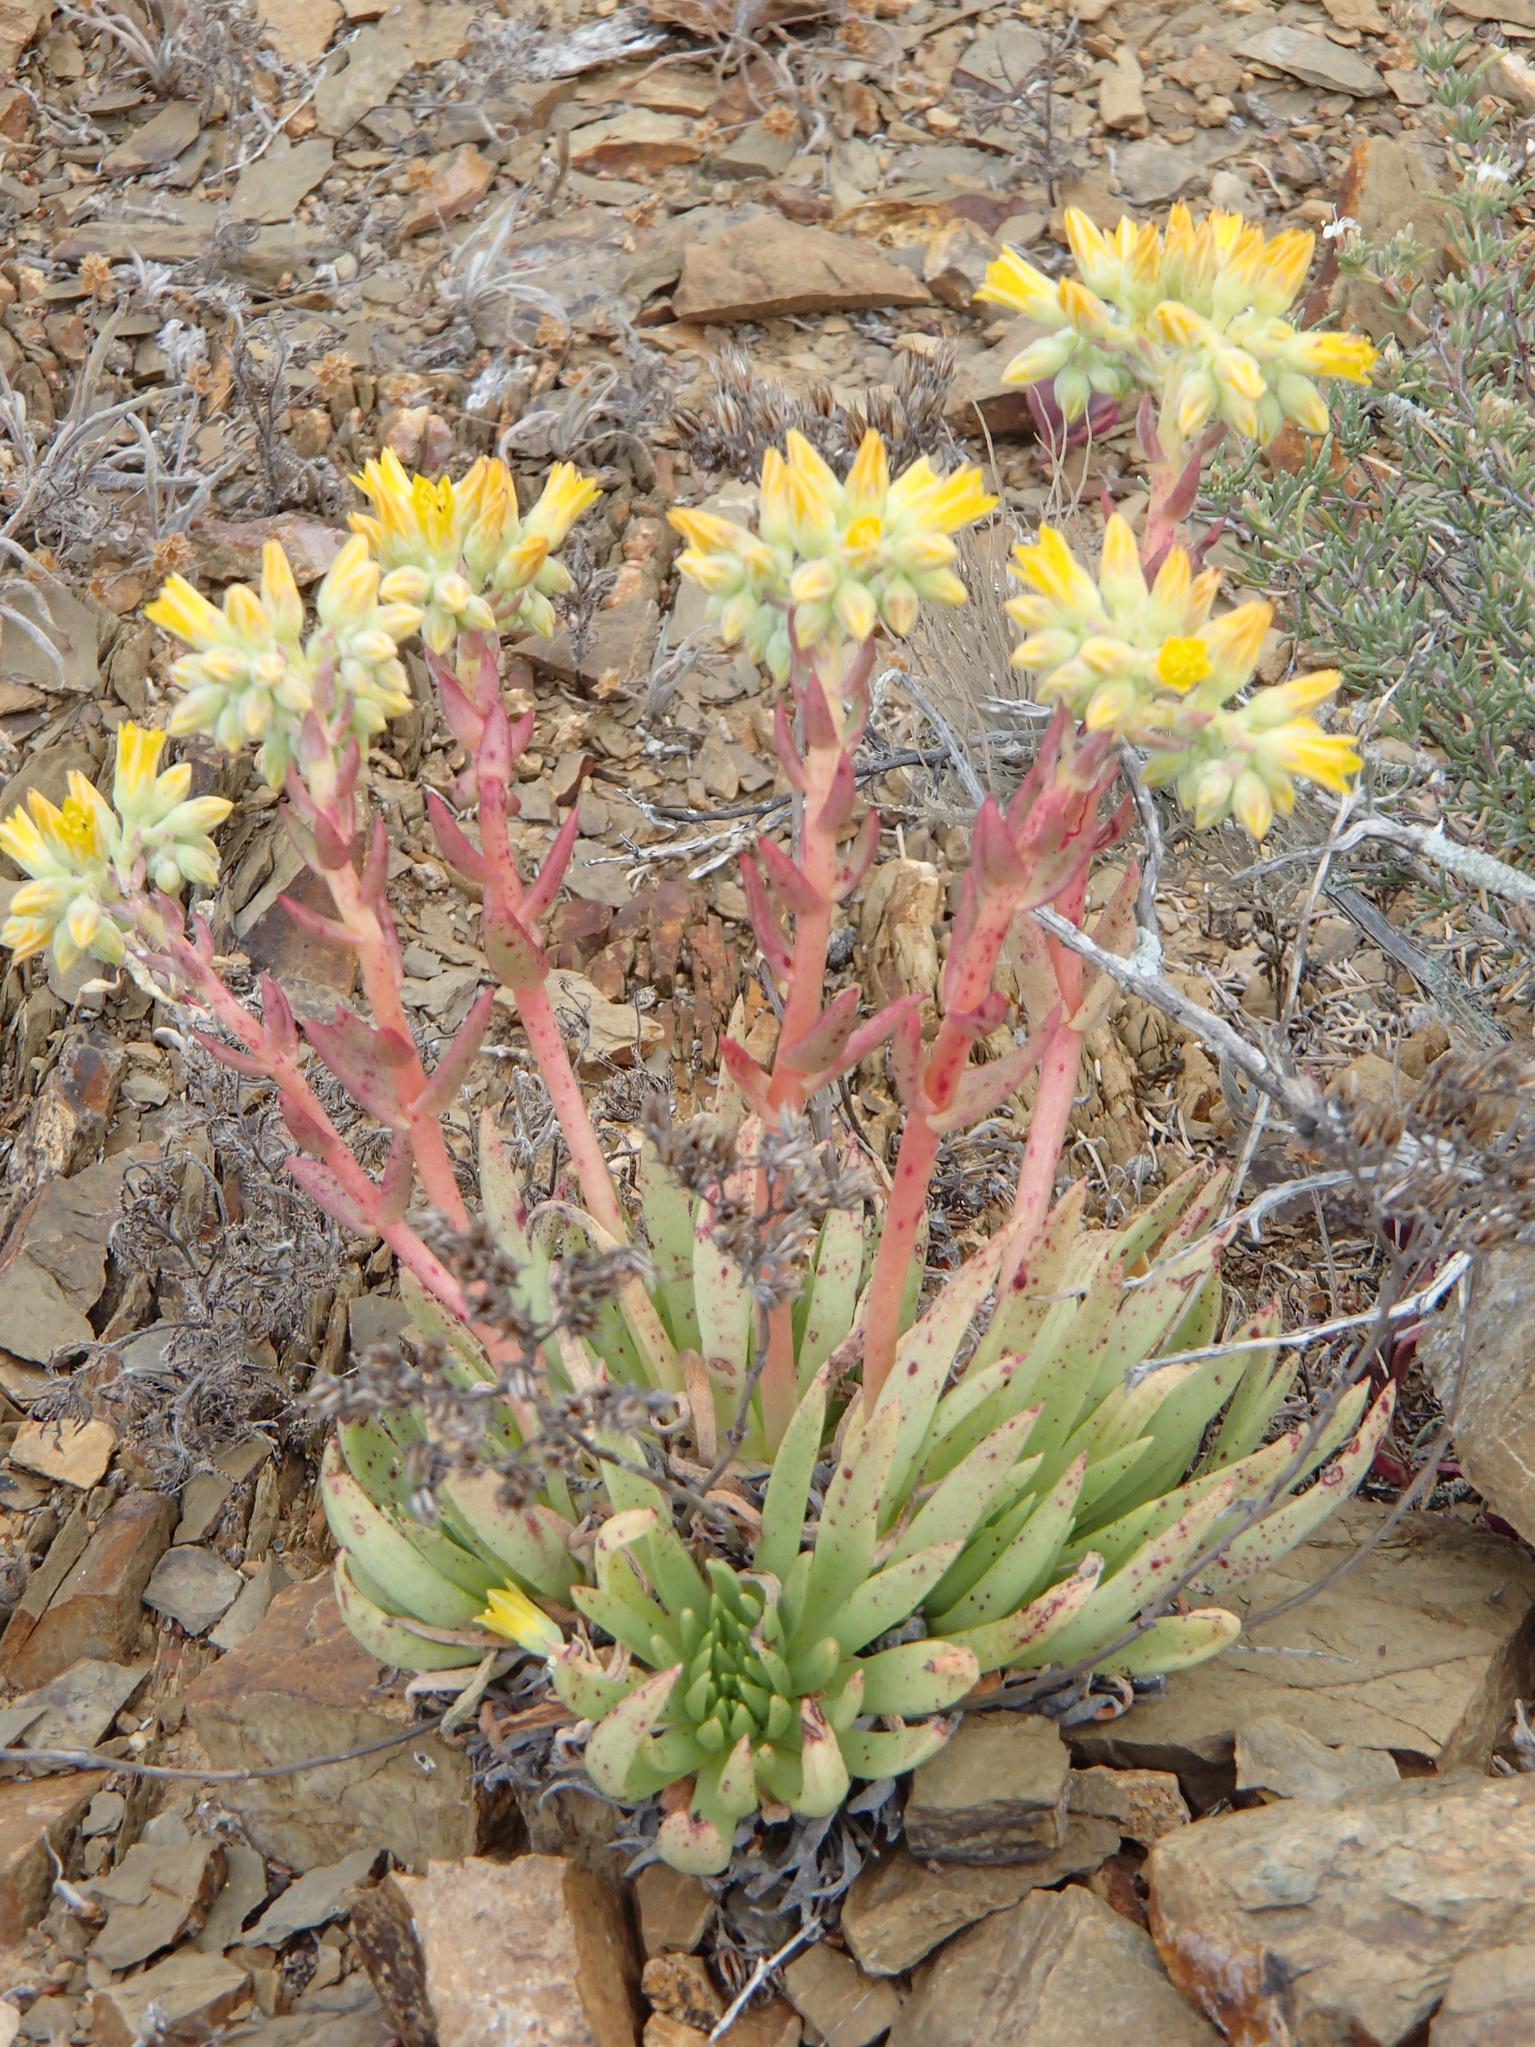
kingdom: Plantae
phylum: Tracheophyta
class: Magnoliopsida
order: Saxifragales
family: Crassulaceae
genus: Dudleya
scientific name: Dudleya linearis
